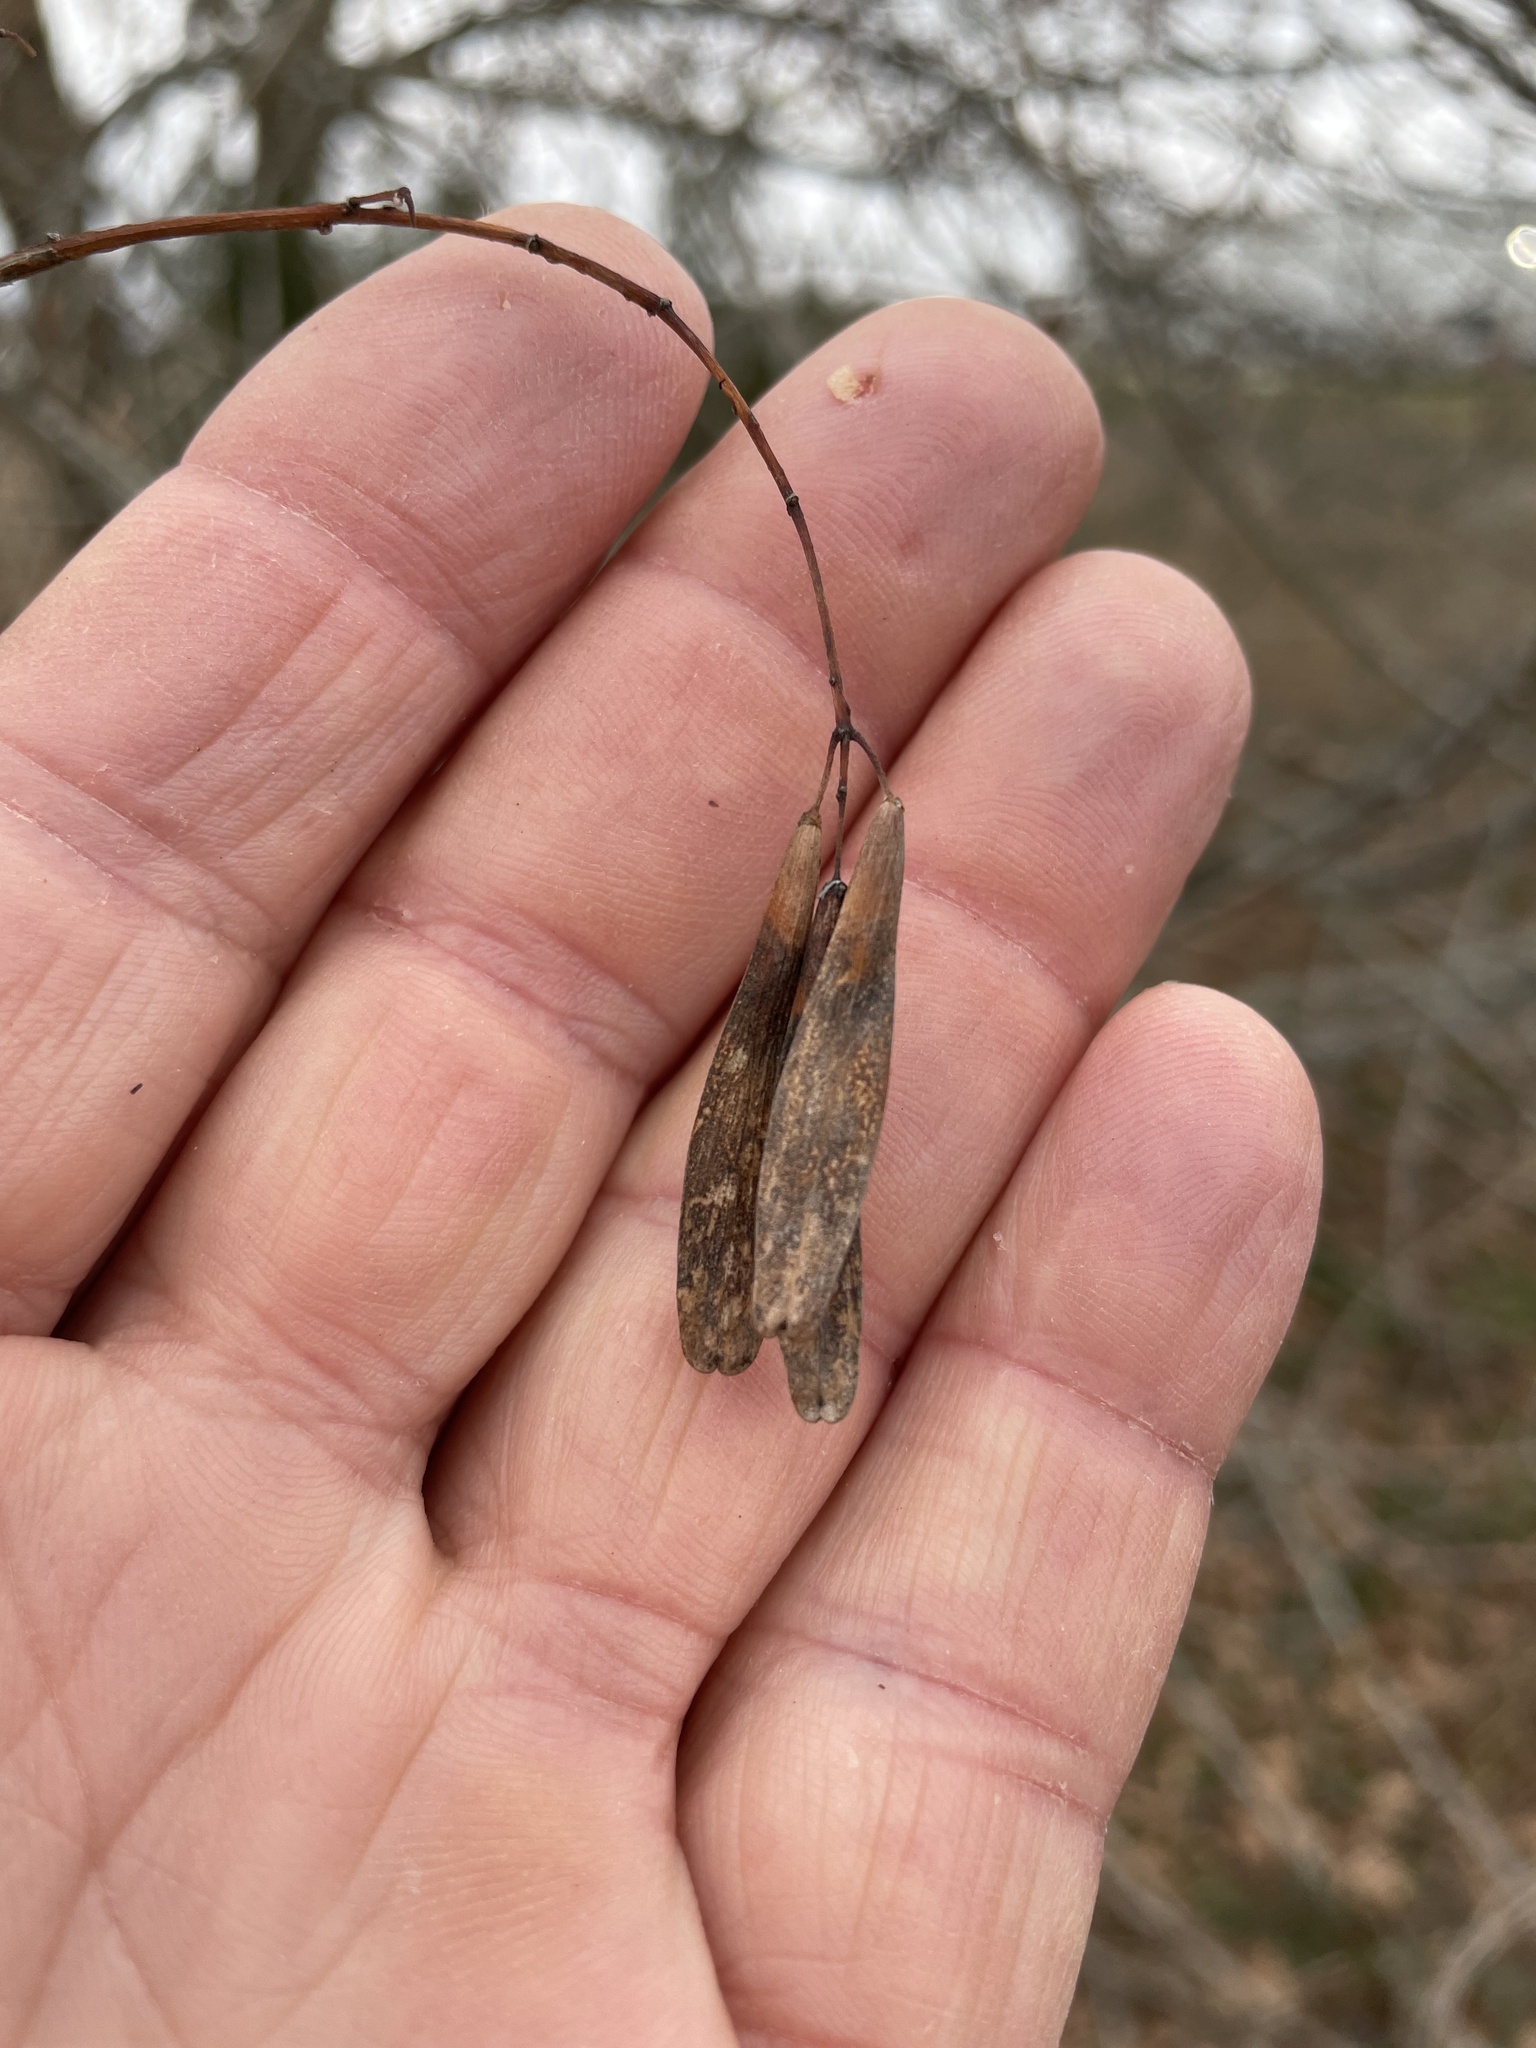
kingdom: Plantae
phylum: Tracheophyta
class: Magnoliopsida
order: Lamiales
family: Oleaceae
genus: Fraxinus
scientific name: Fraxinus albicans
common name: Texas ash
